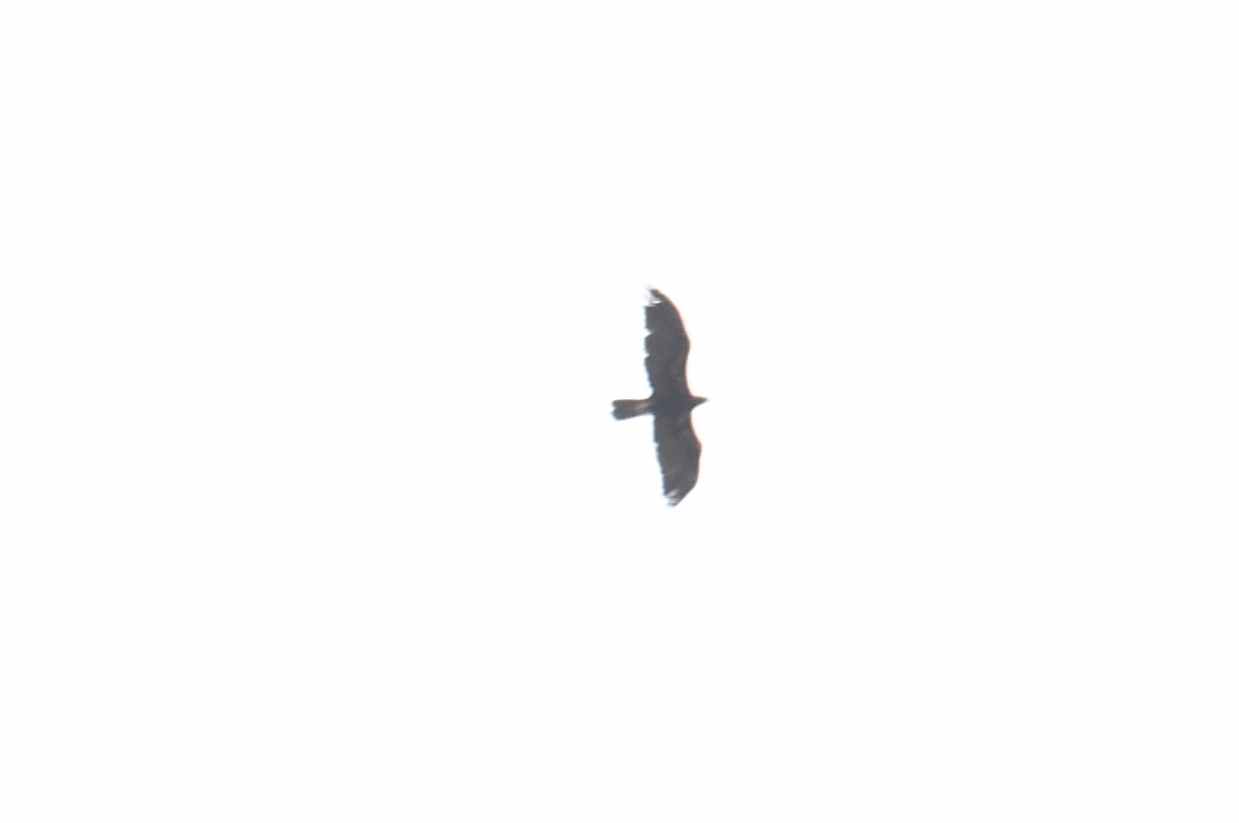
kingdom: Animalia
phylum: Chordata
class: Aves
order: Accipitriformes
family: Accipitridae
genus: Aquila
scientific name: Aquila chrysaetos
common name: Golden eagle
